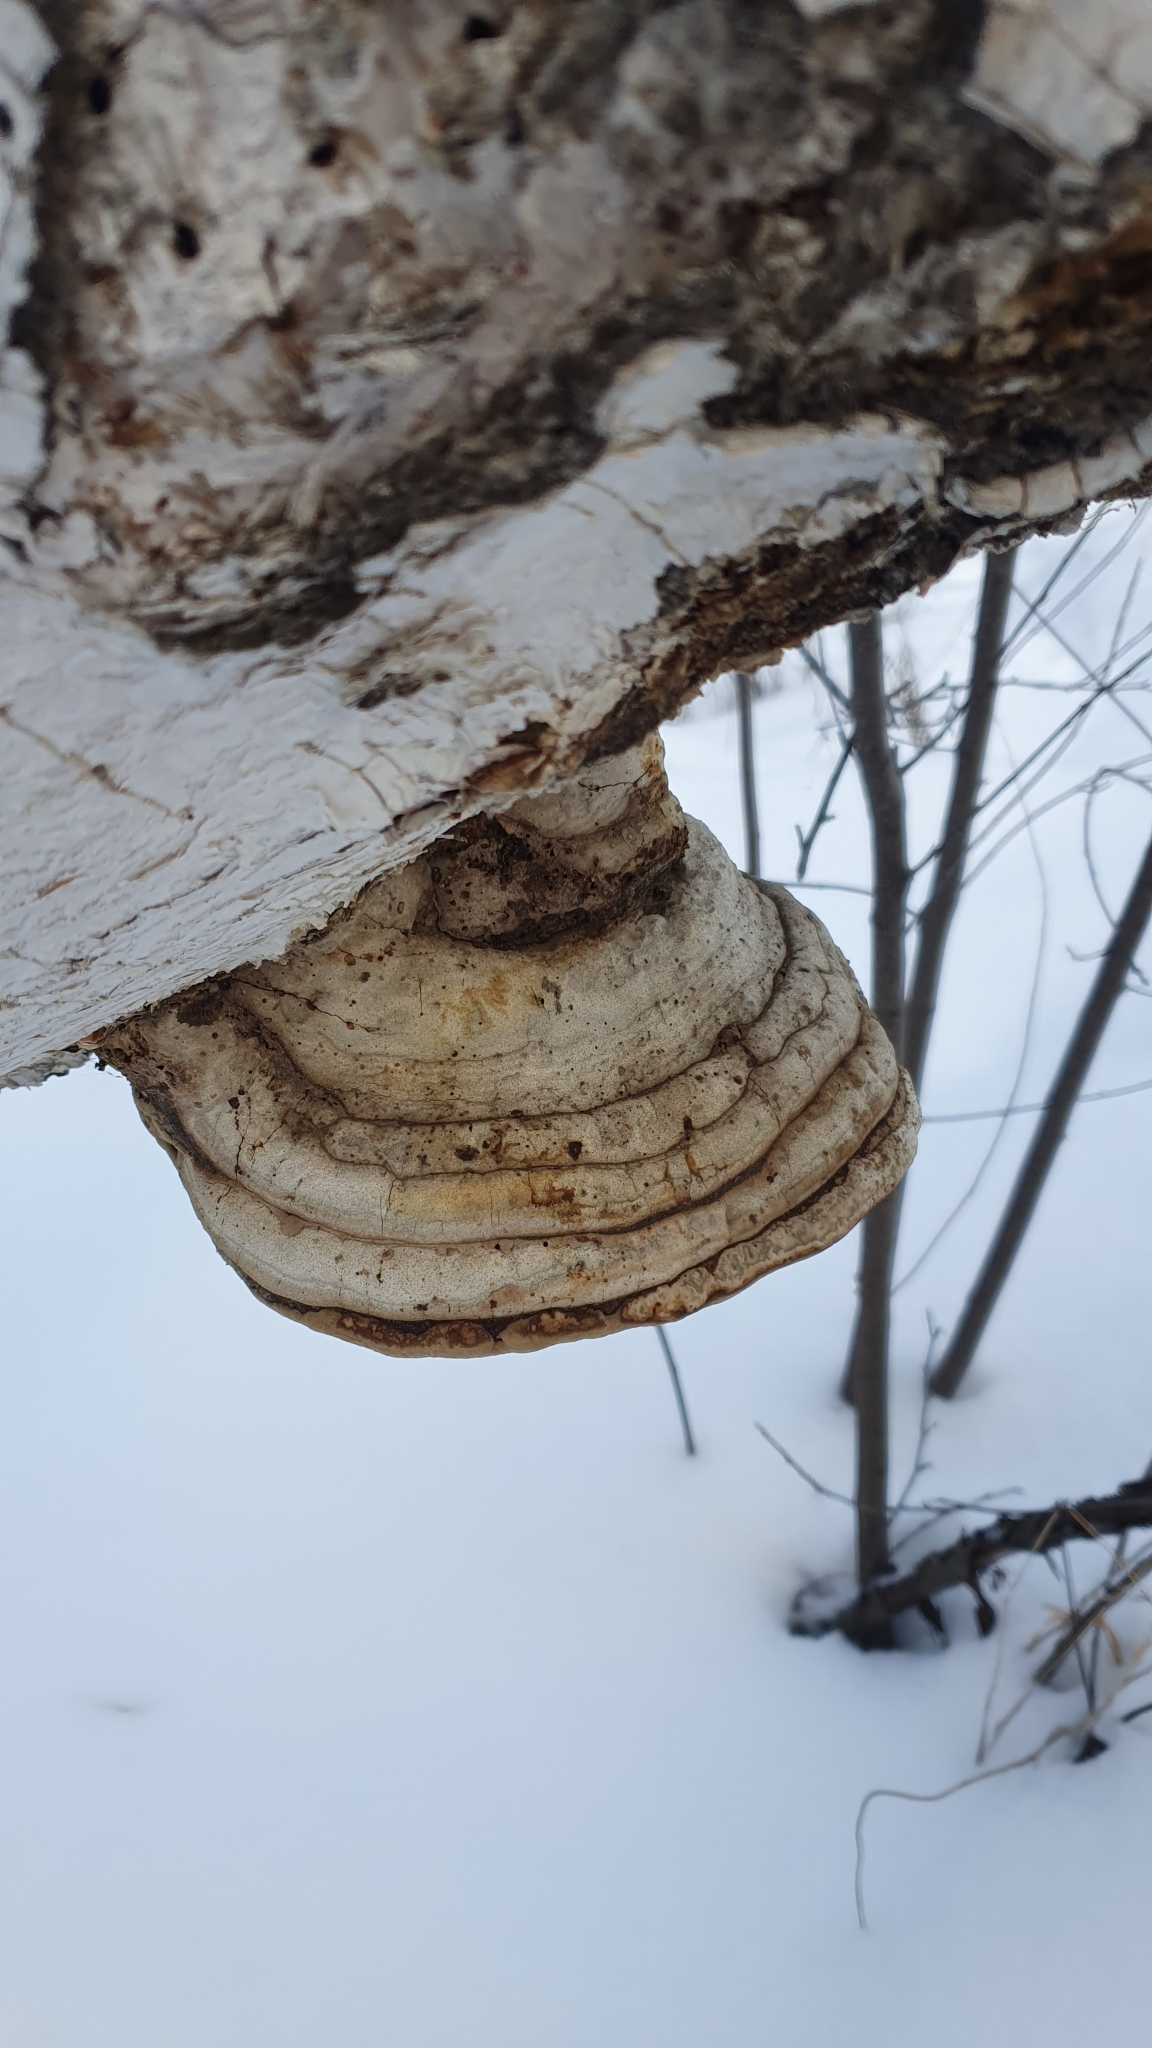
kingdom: Fungi
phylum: Basidiomycota
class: Agaricomycetes
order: Polyporales
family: Polyporaceae
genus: Fomes
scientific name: Fomes fomentarius
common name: Hoof fungus
